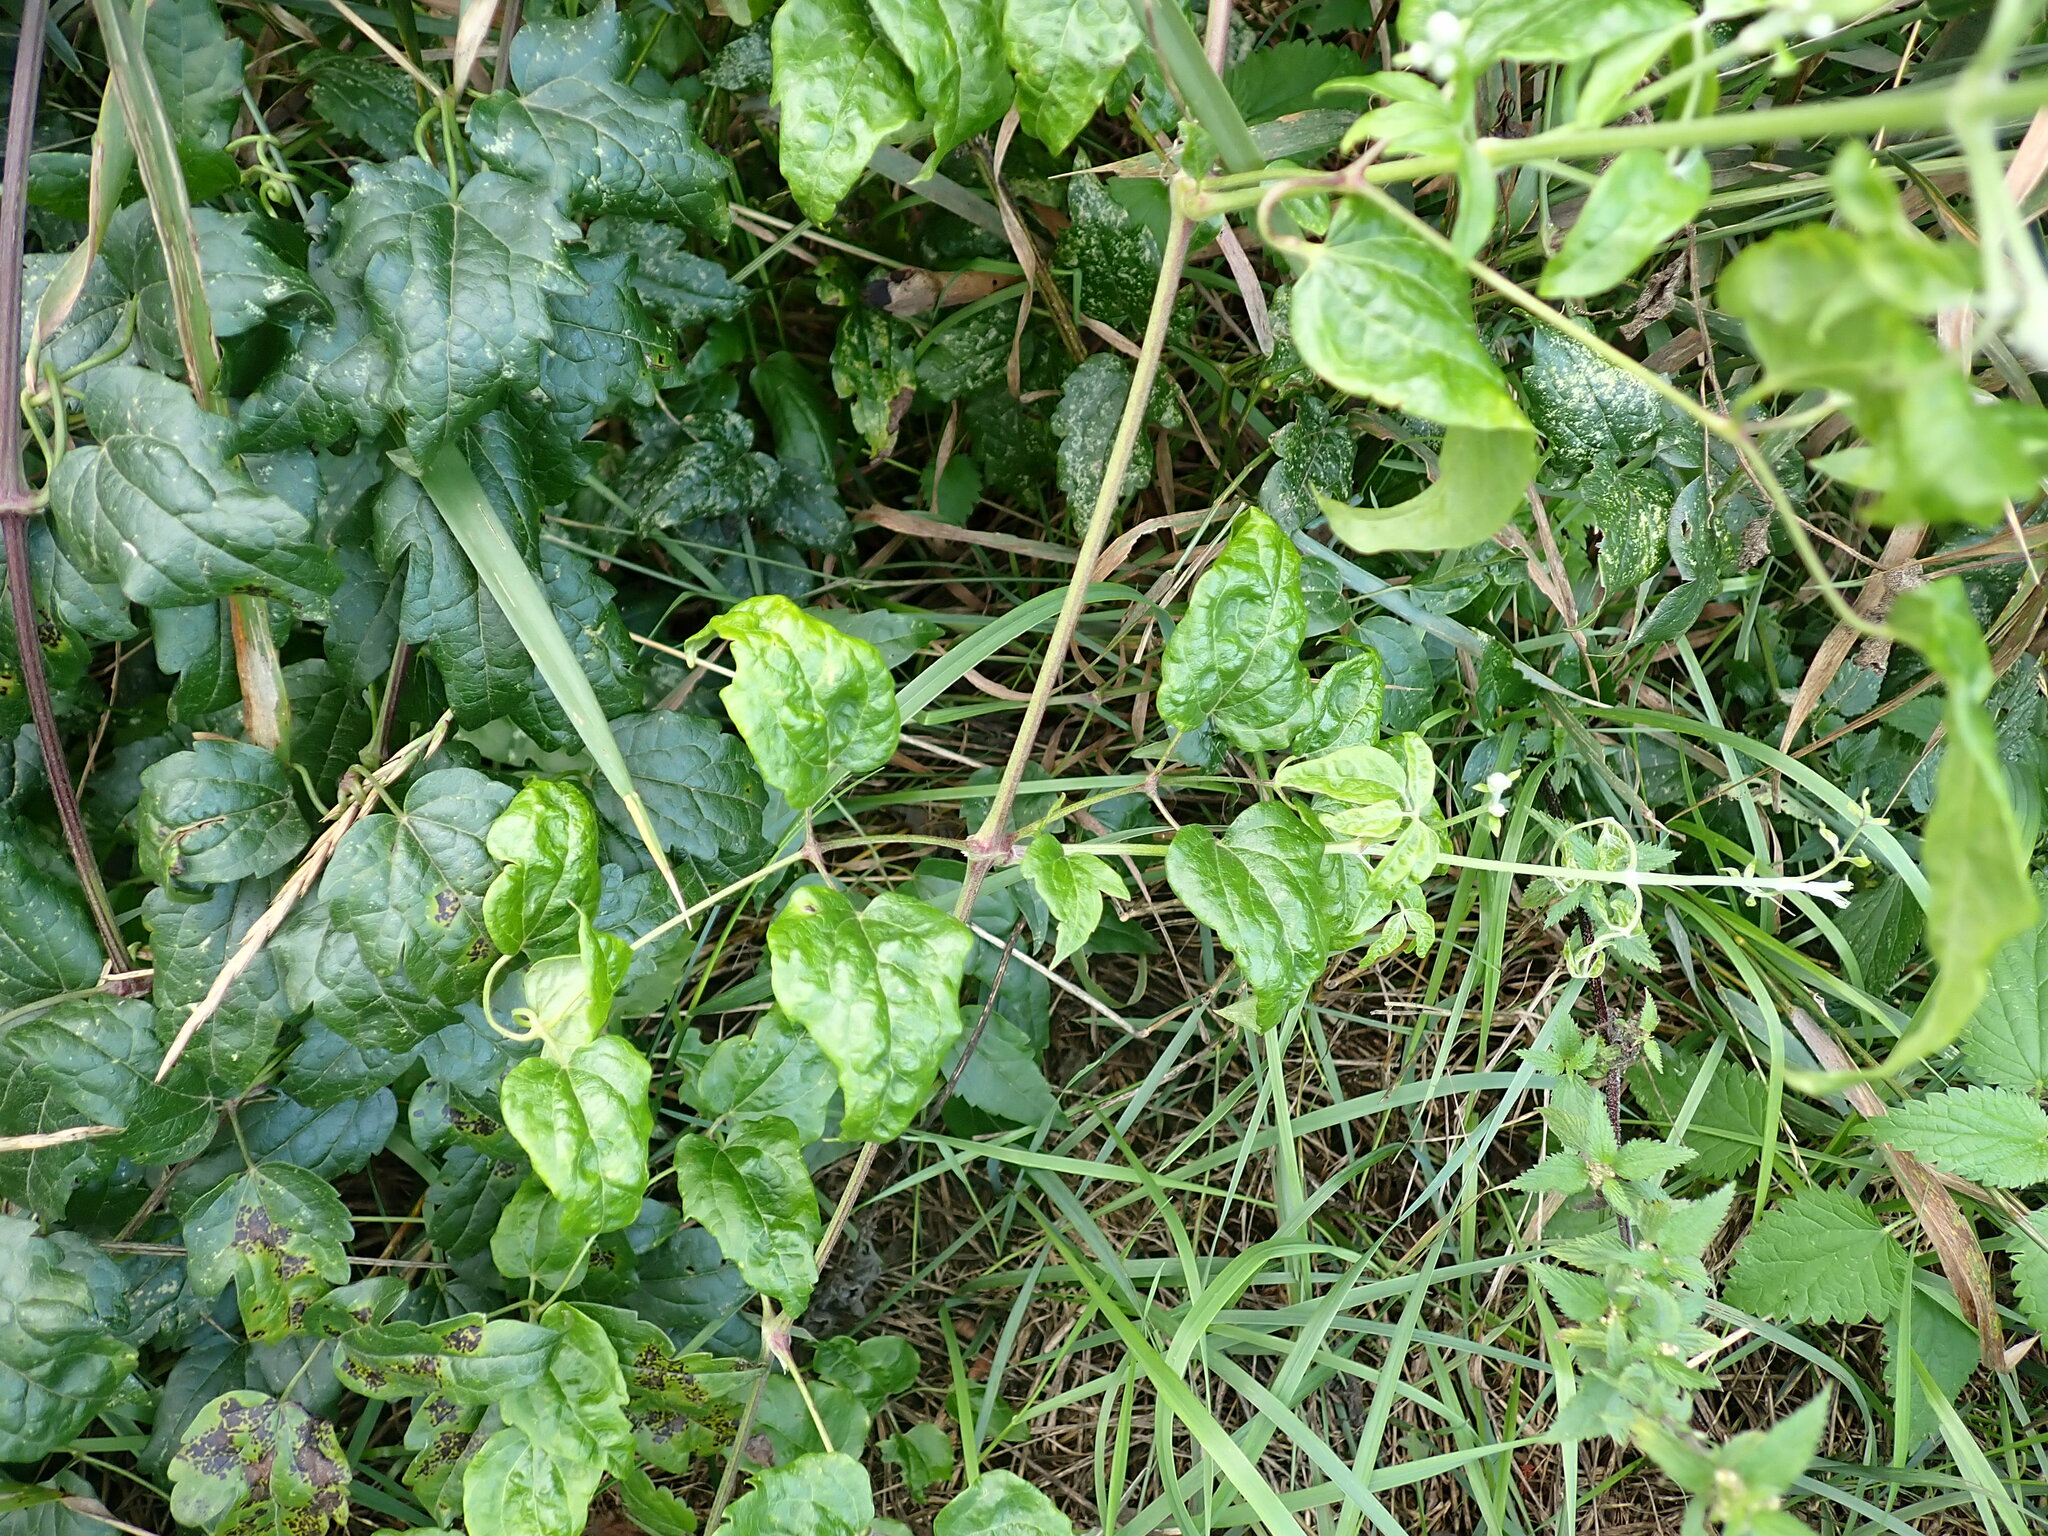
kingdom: Plantae
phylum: Tracheophyta
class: Magnoliopsida
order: Ranunculales
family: Ranunculaceae
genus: Clematis
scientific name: Clematis vitalba
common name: Evergreen clematis
